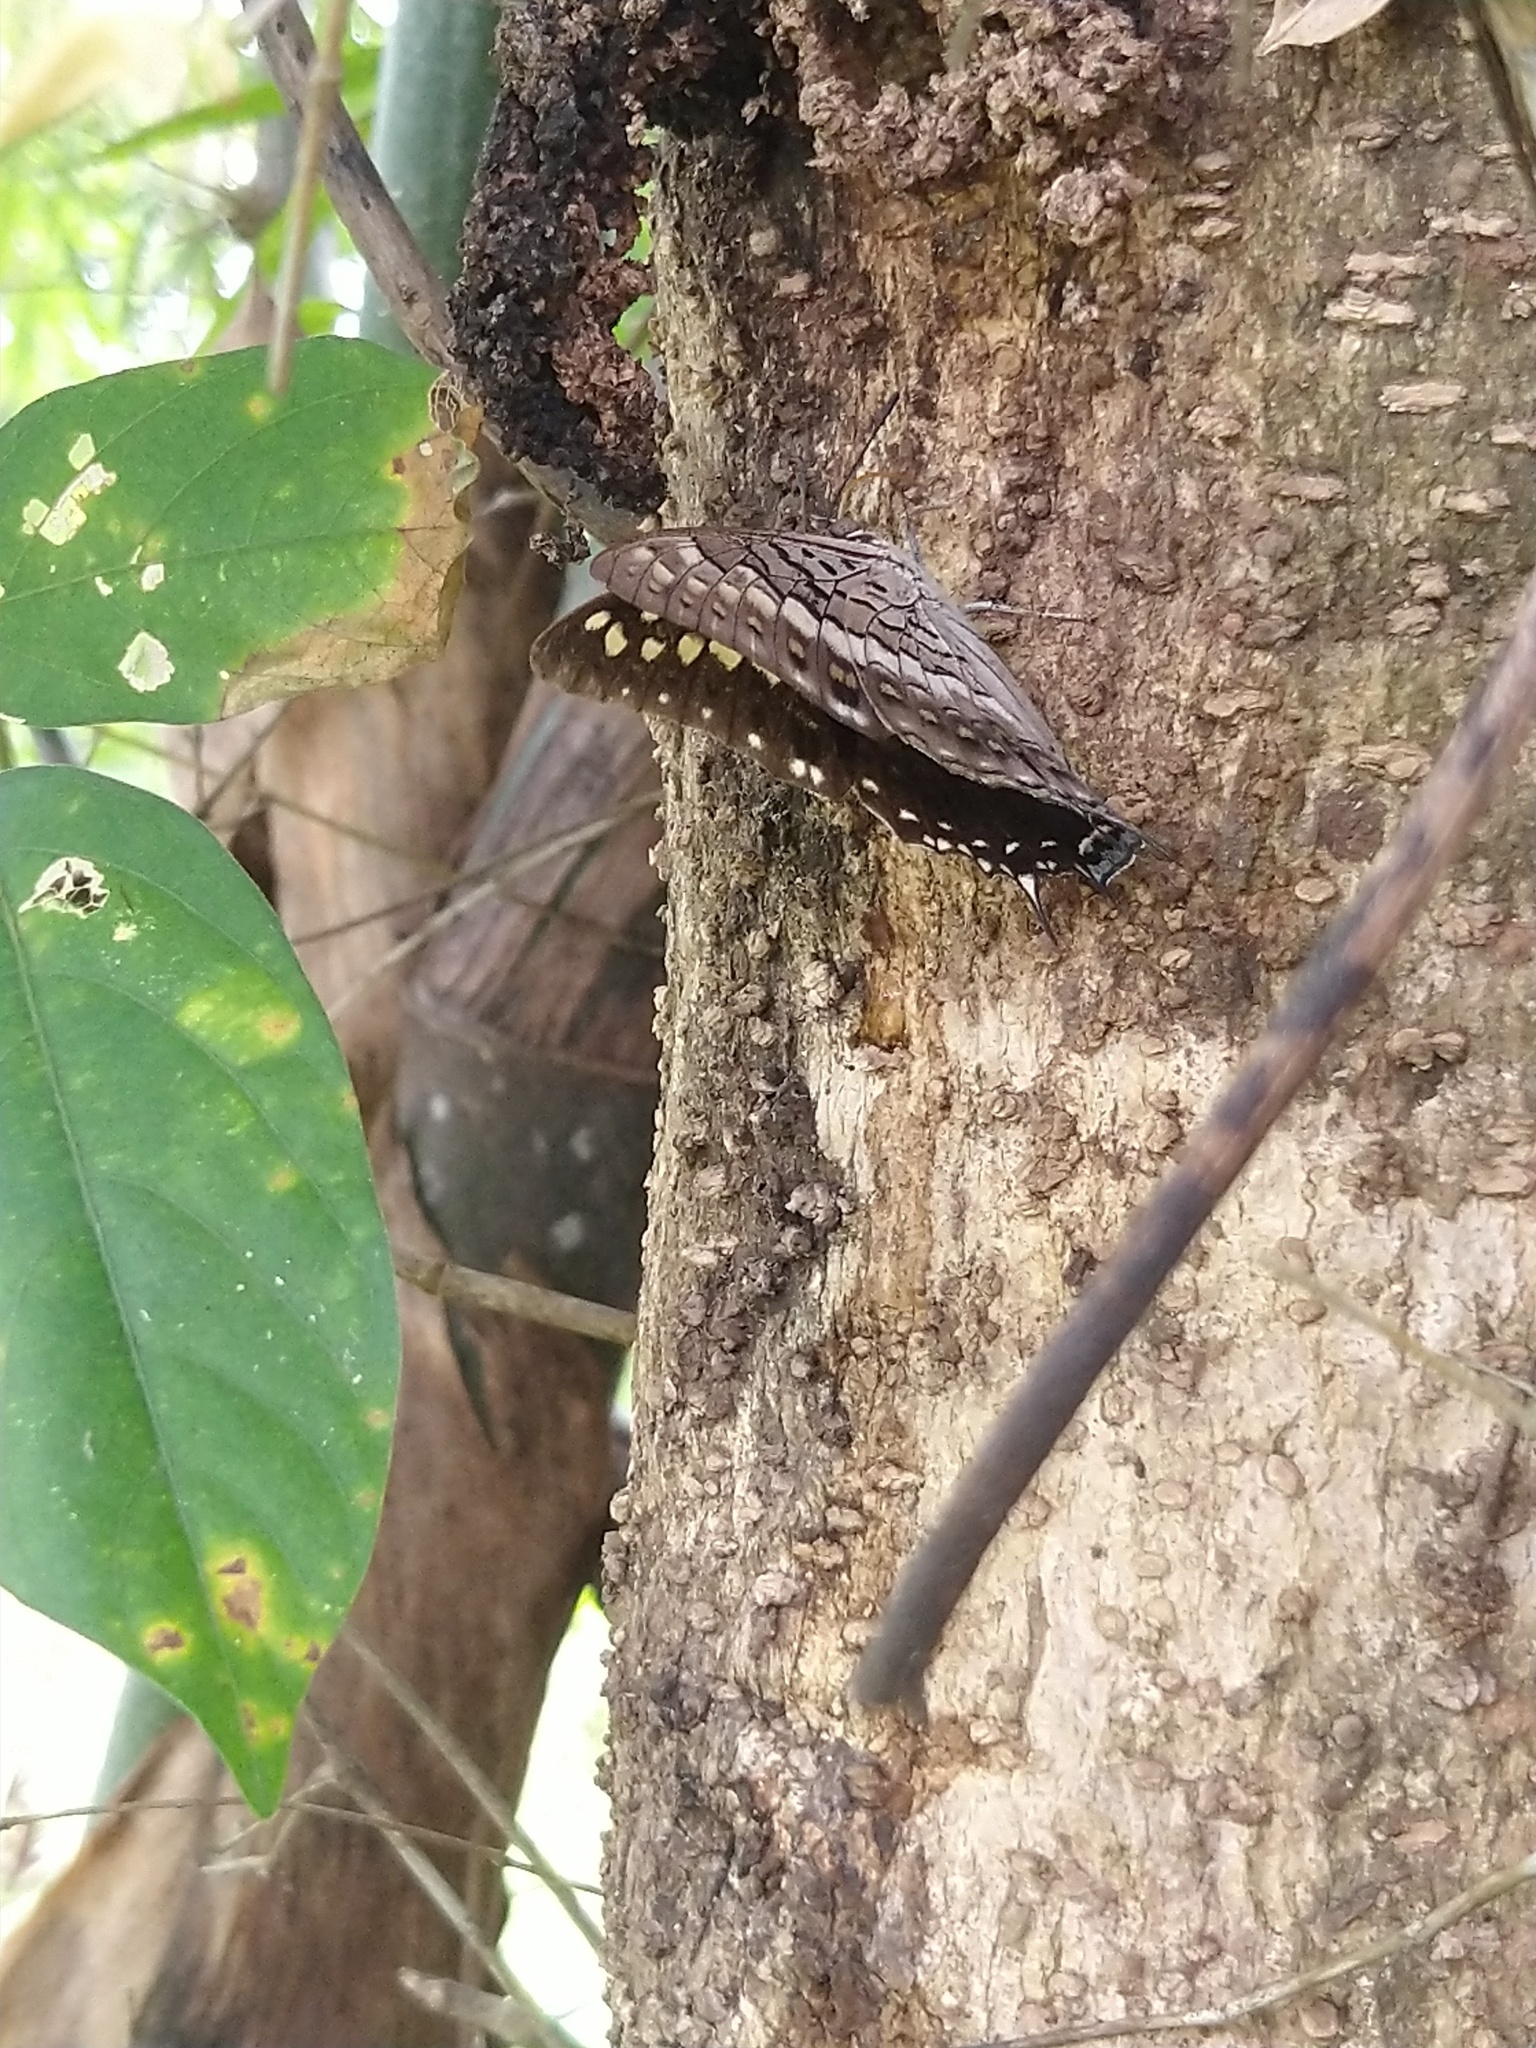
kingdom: Animalia
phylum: Arthropoda
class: Insecta
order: Lepidoptera
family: Nymphalidae
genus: Charaxes
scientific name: Charaxes solon
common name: Black rajah
